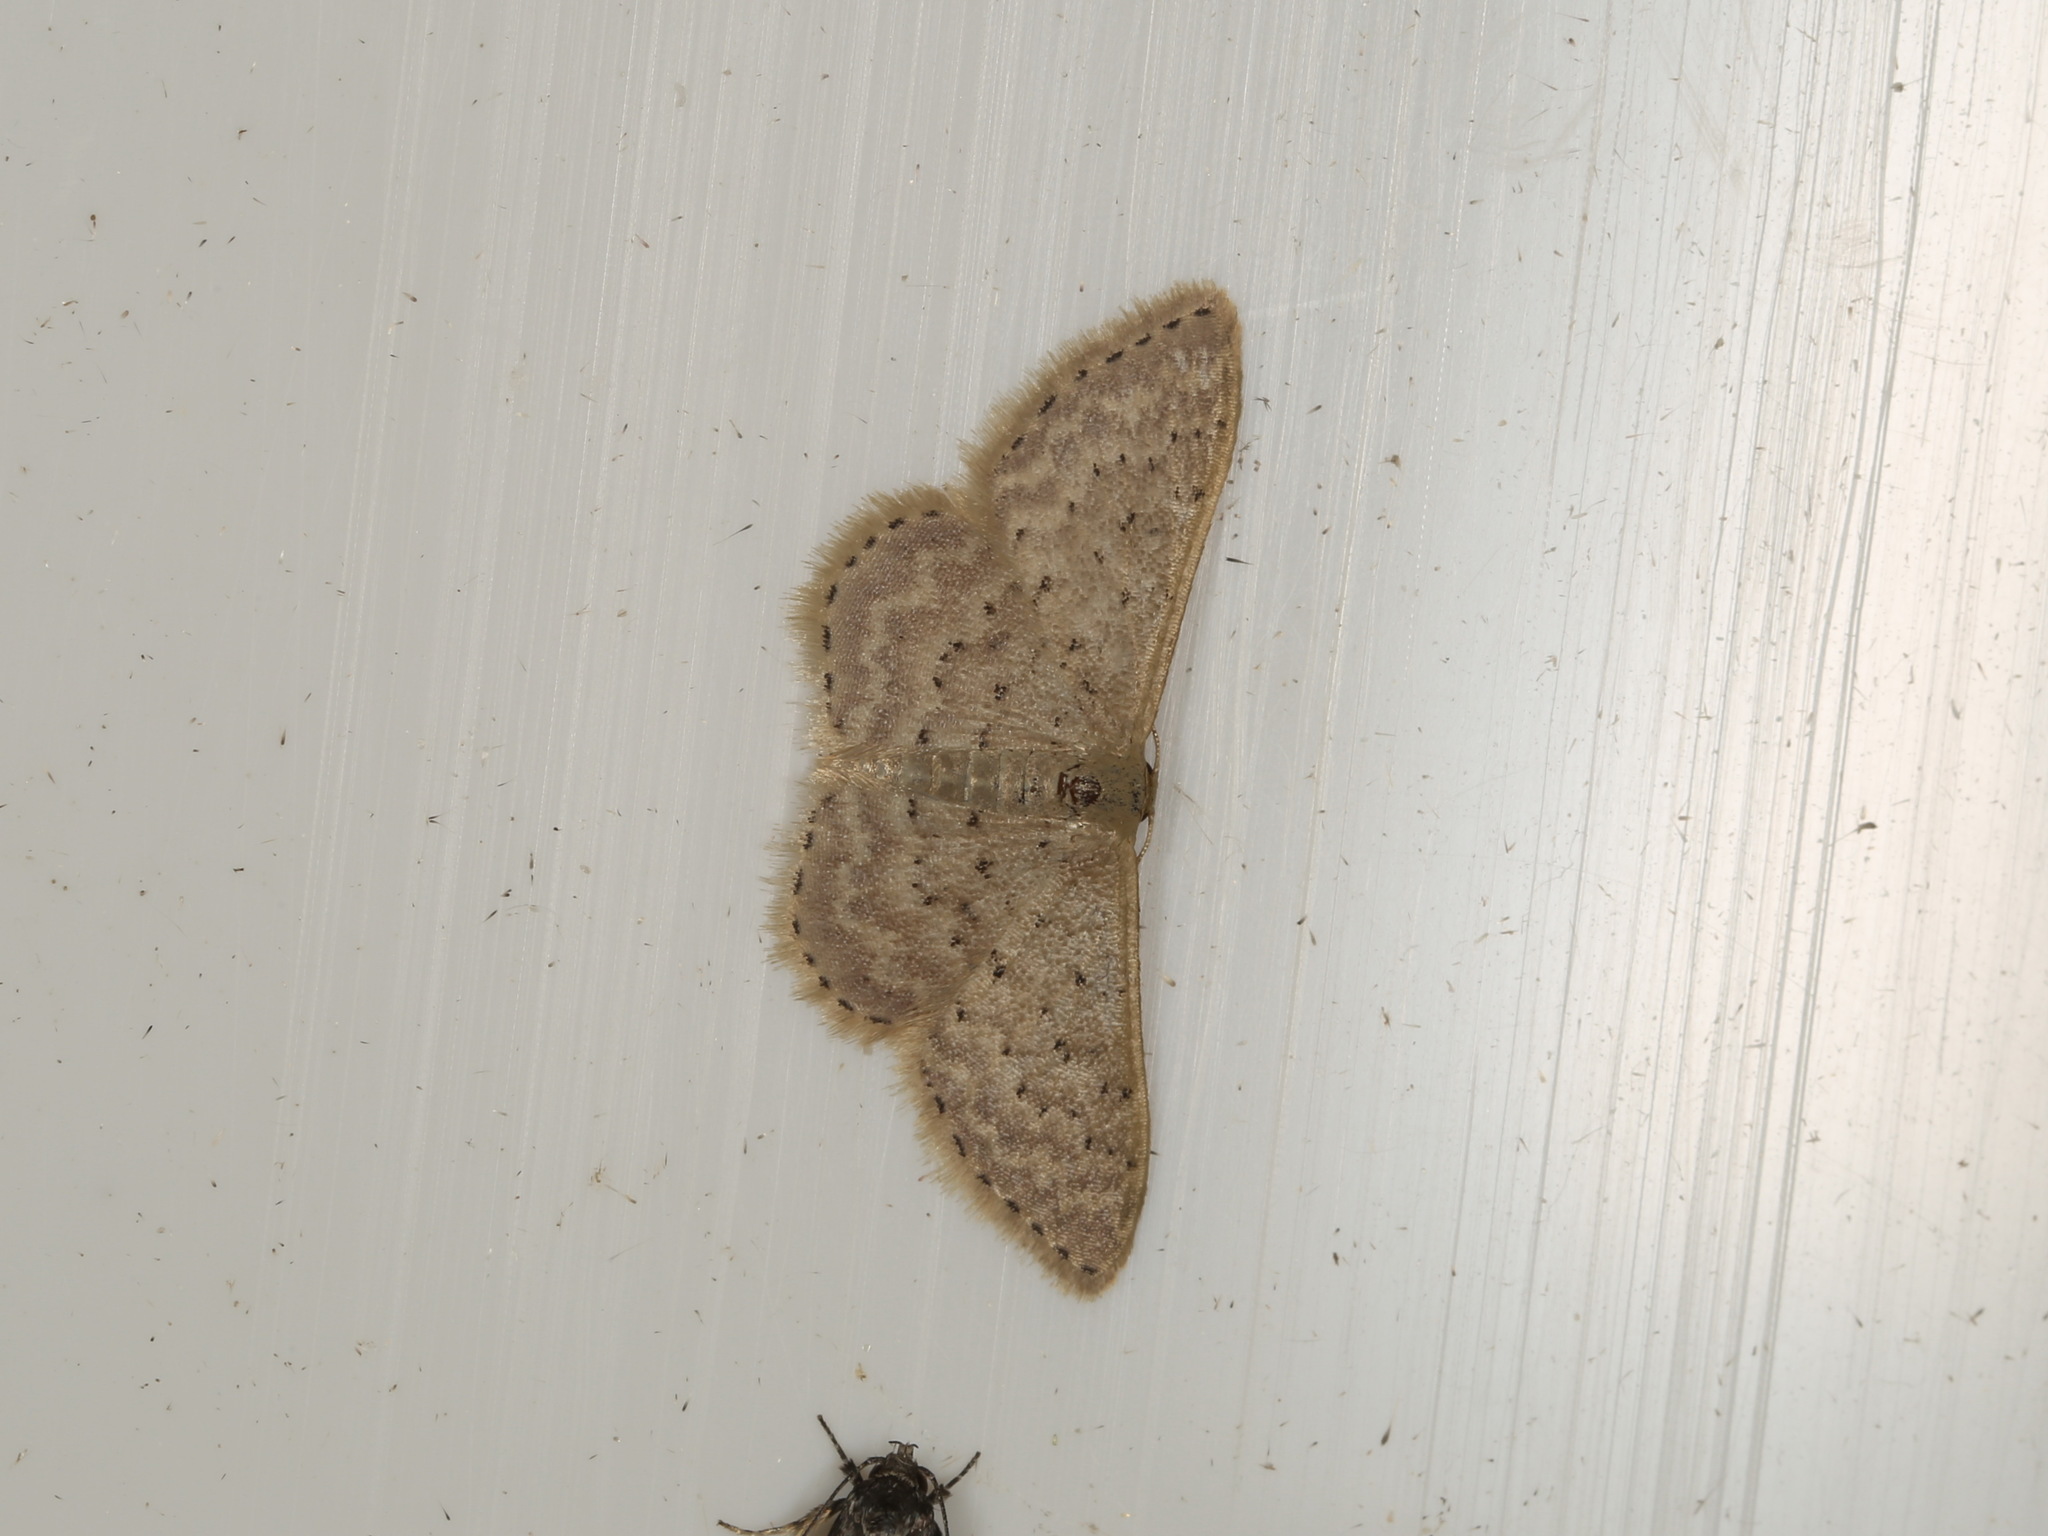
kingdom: Animalia
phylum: Arthropoda
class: Insecta
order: Lepidoptera
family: Geometridae
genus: Idaea
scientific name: Idaea philocosma
